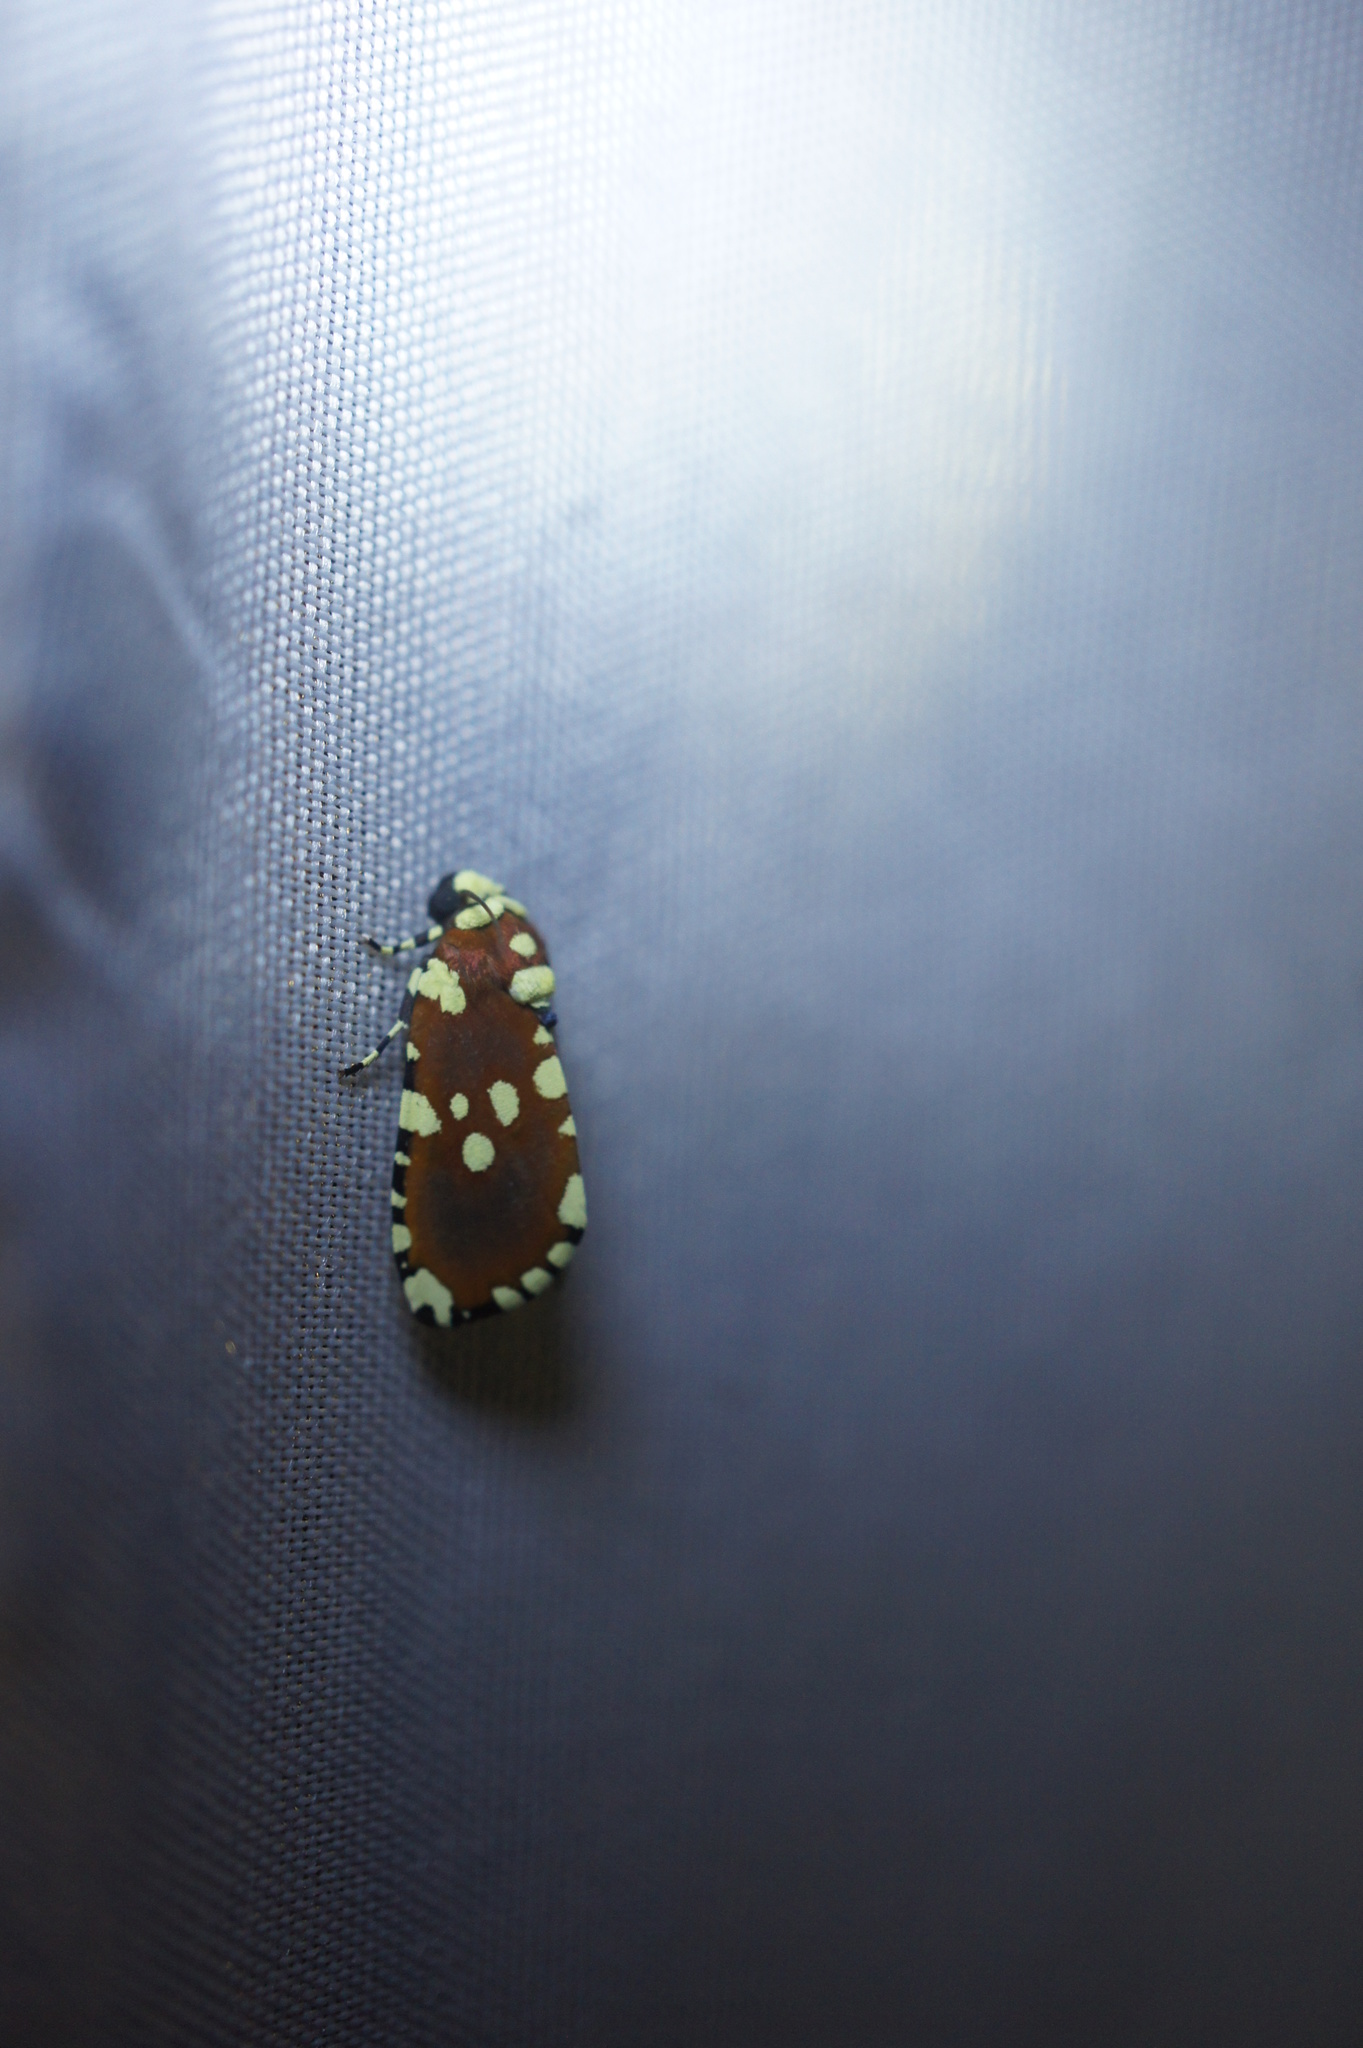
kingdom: Animalia
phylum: Arthropoda
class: Insecta
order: Lepidoptera
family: Noctuidae
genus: Yepcalphis
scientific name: Yepcalphis dilectissima
